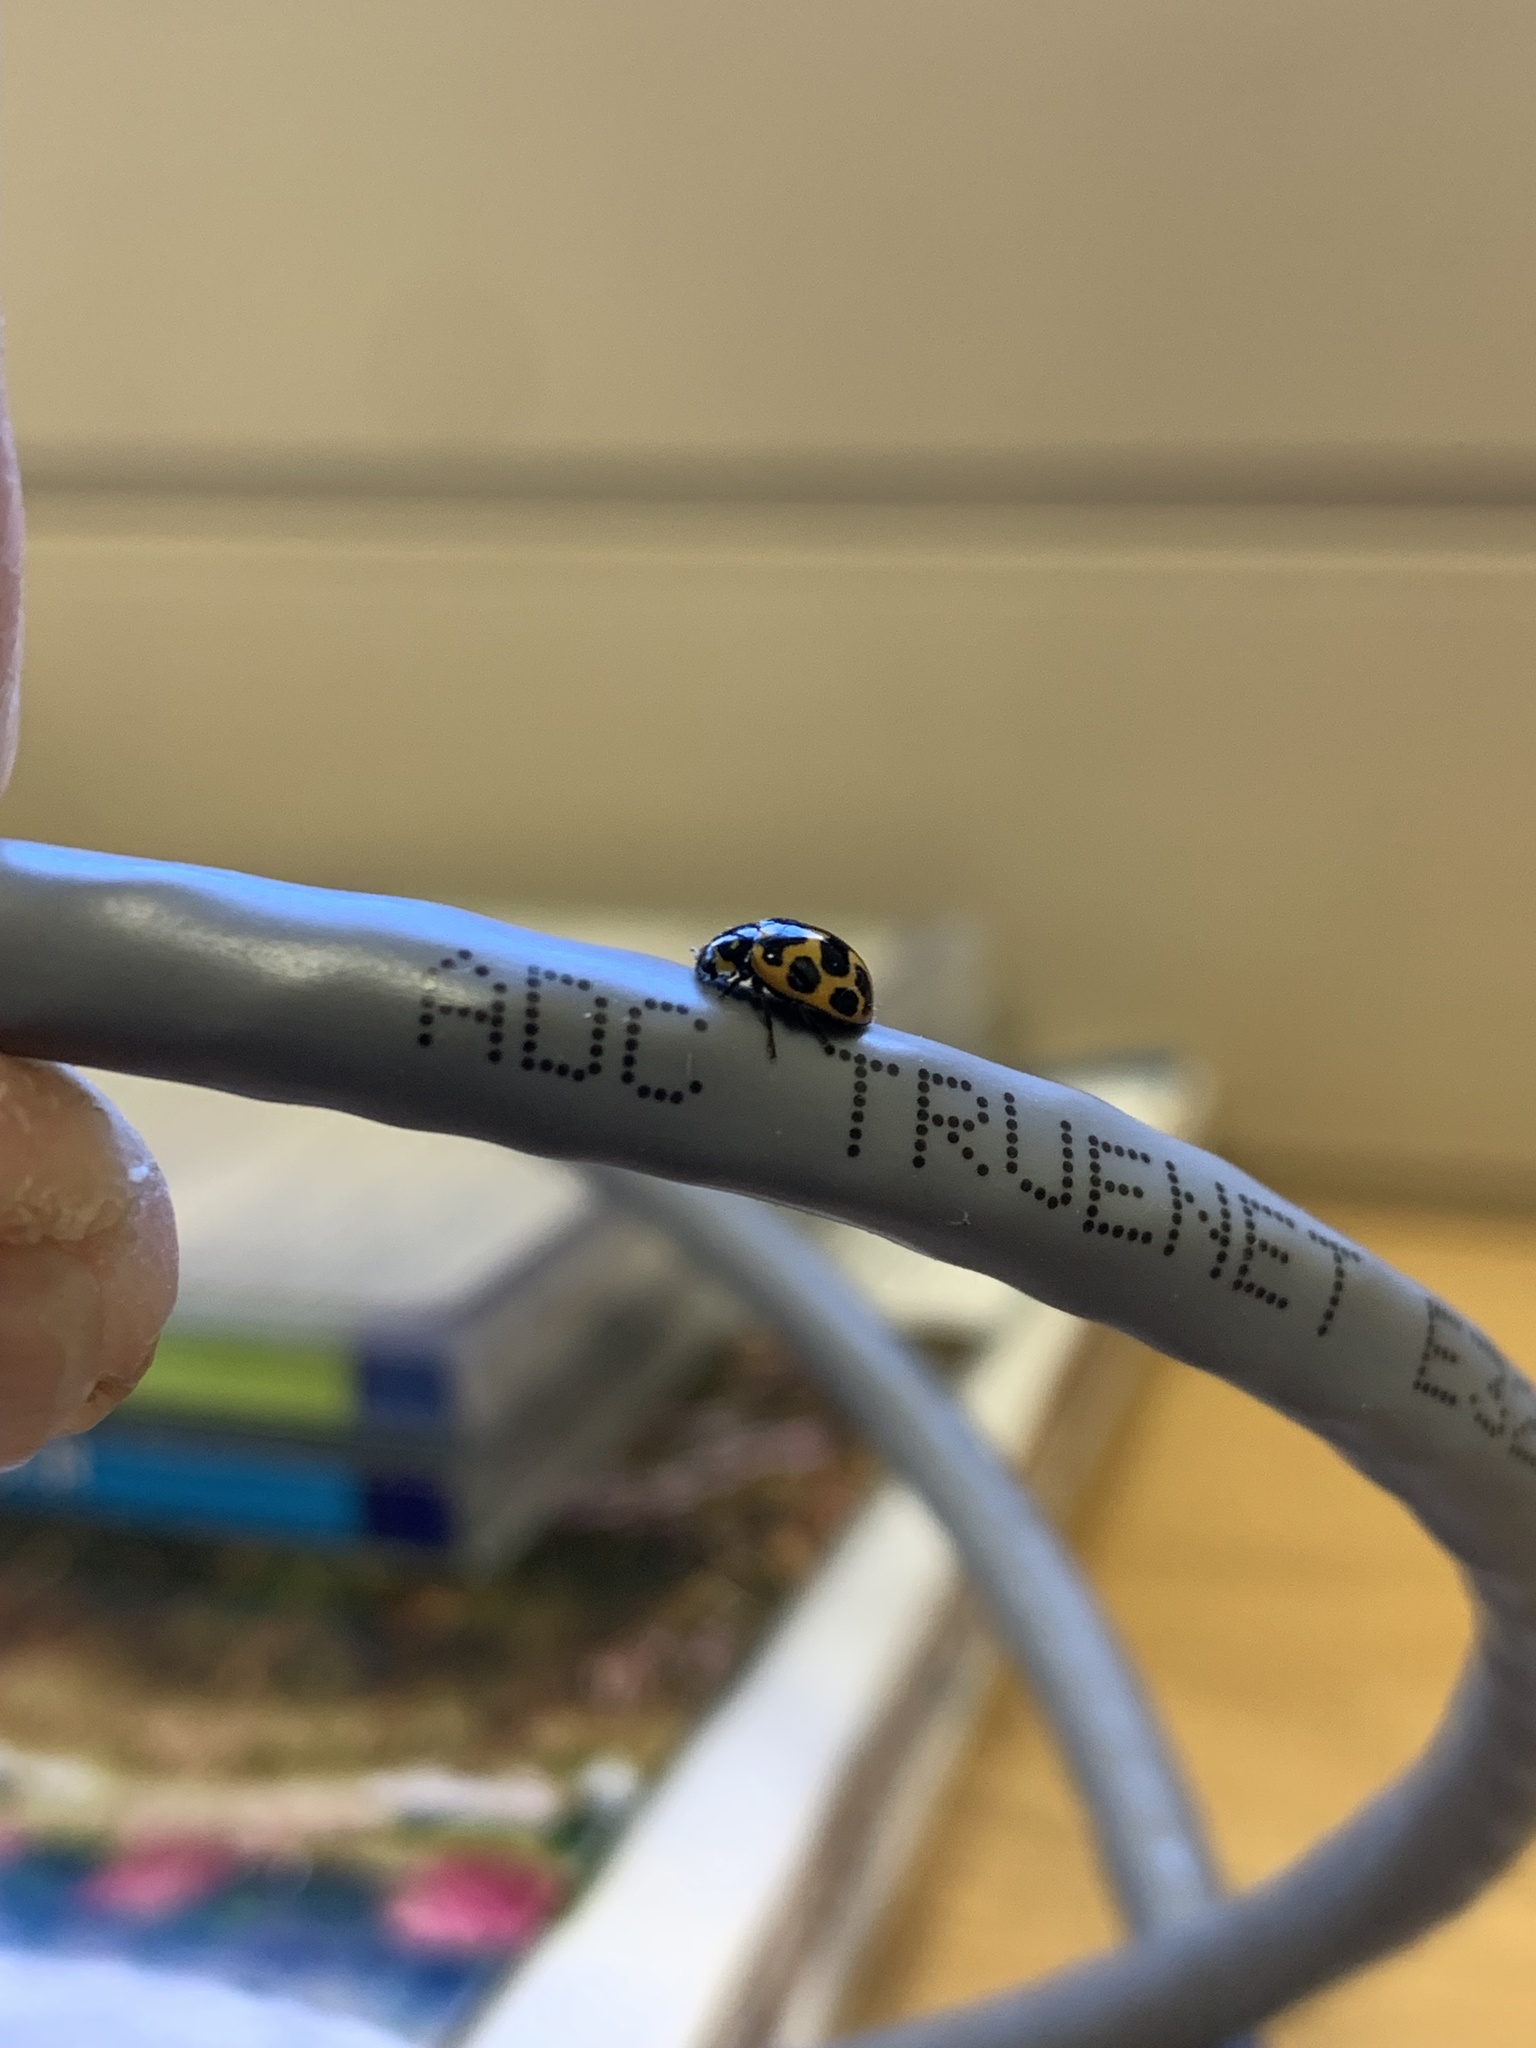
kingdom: Animalia
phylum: Arthropoda
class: Insecta
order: Coleoptera
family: Coccinellidae
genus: Harmonia
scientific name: Harmonia axyridis
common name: Harlequin ladybird
